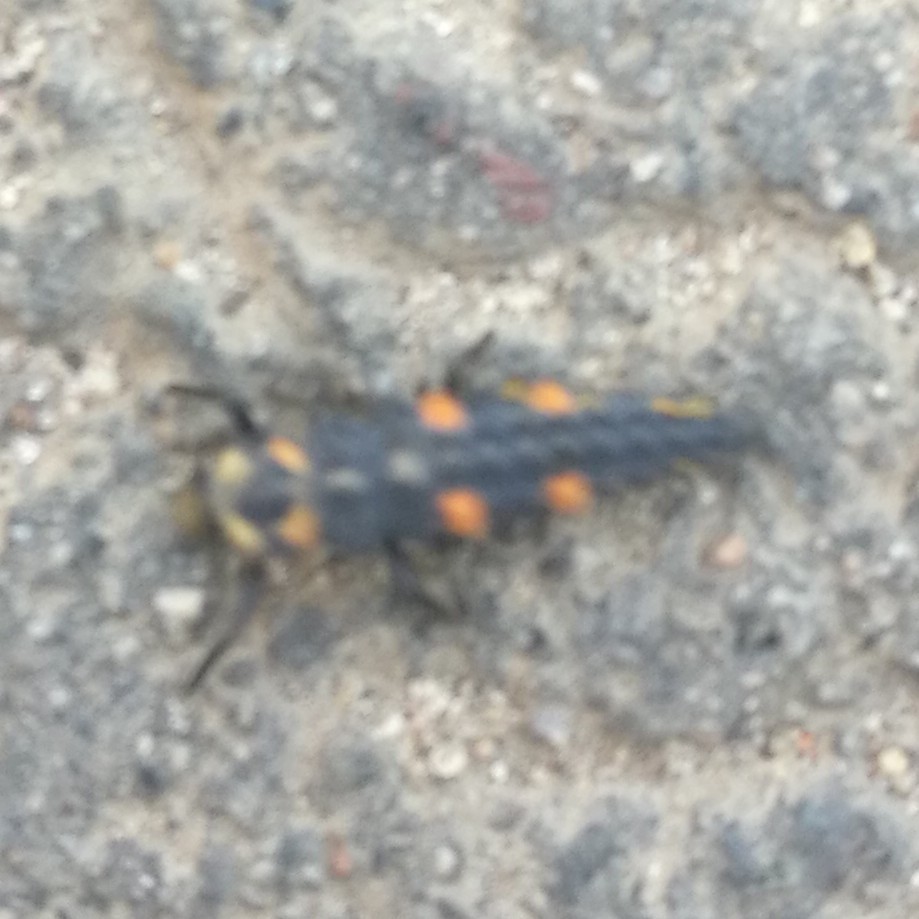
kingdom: Animalia
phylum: Arthropoda
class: Insecta
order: Coleoptera
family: Coccinellidae
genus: Coccinella
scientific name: Coccinella septempunctata
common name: Sevenspotted lady beetle
